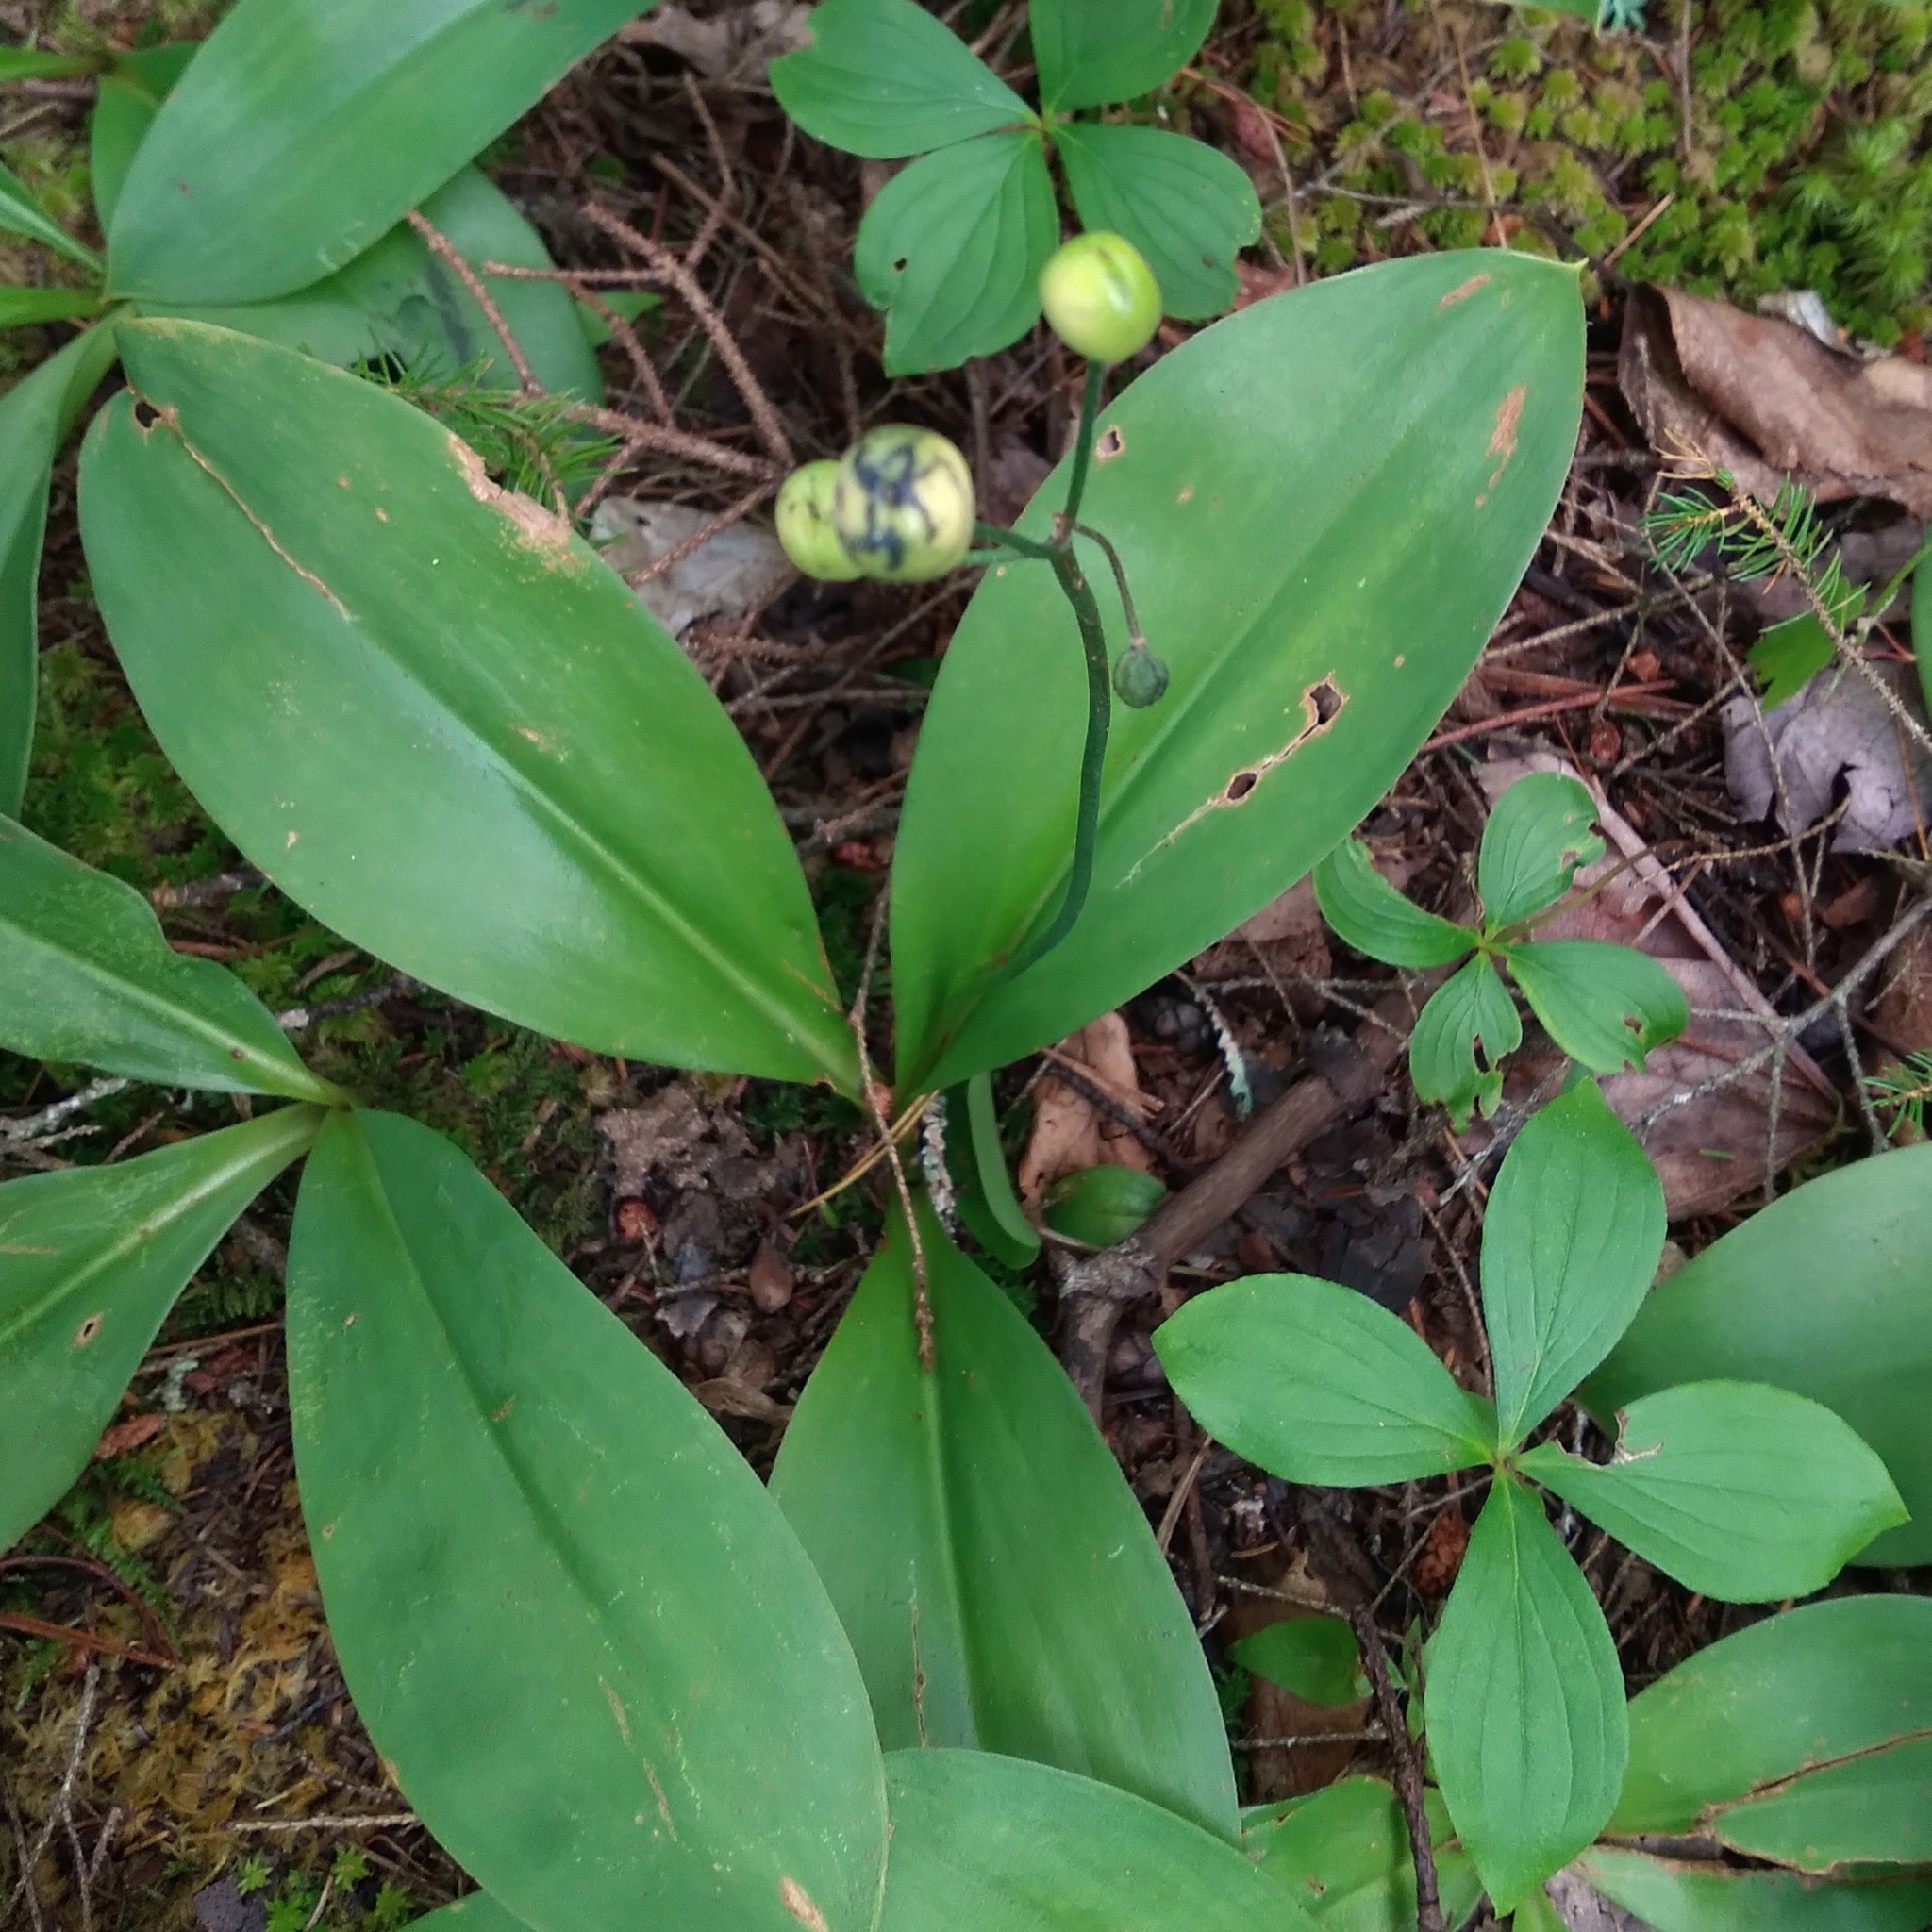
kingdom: Plantae
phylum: Tracheophyta
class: Liliopsida
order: Liliales
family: Liliaceae
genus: Clintonia
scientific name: Clintonia borealis
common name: Yellow clintonia
